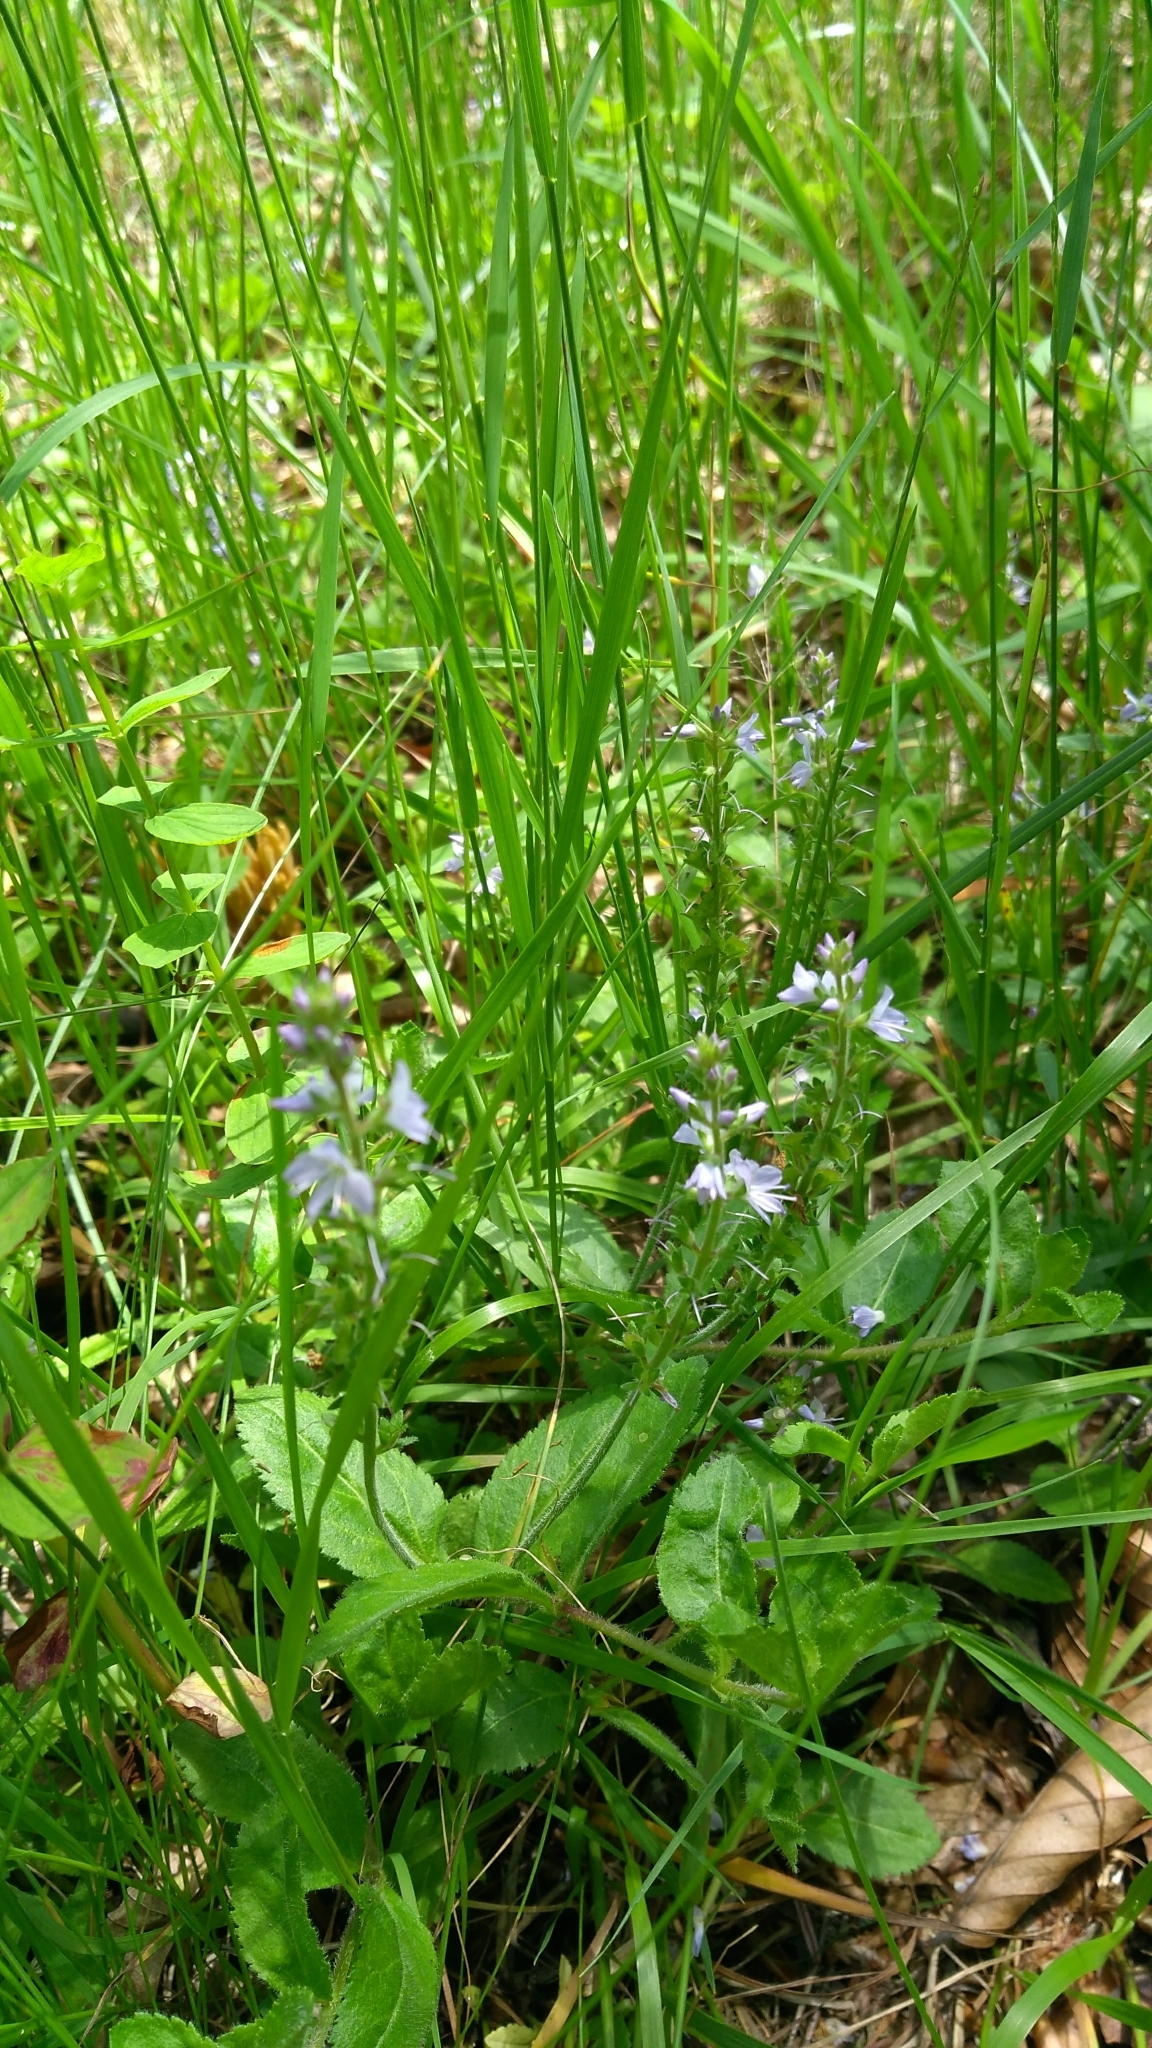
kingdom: Plantae
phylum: Tracheophyta
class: Magnoliopsida
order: Lamiales
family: Plantaginaceae
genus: Veronica
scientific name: Veronica officinalis
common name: Common speedwell
